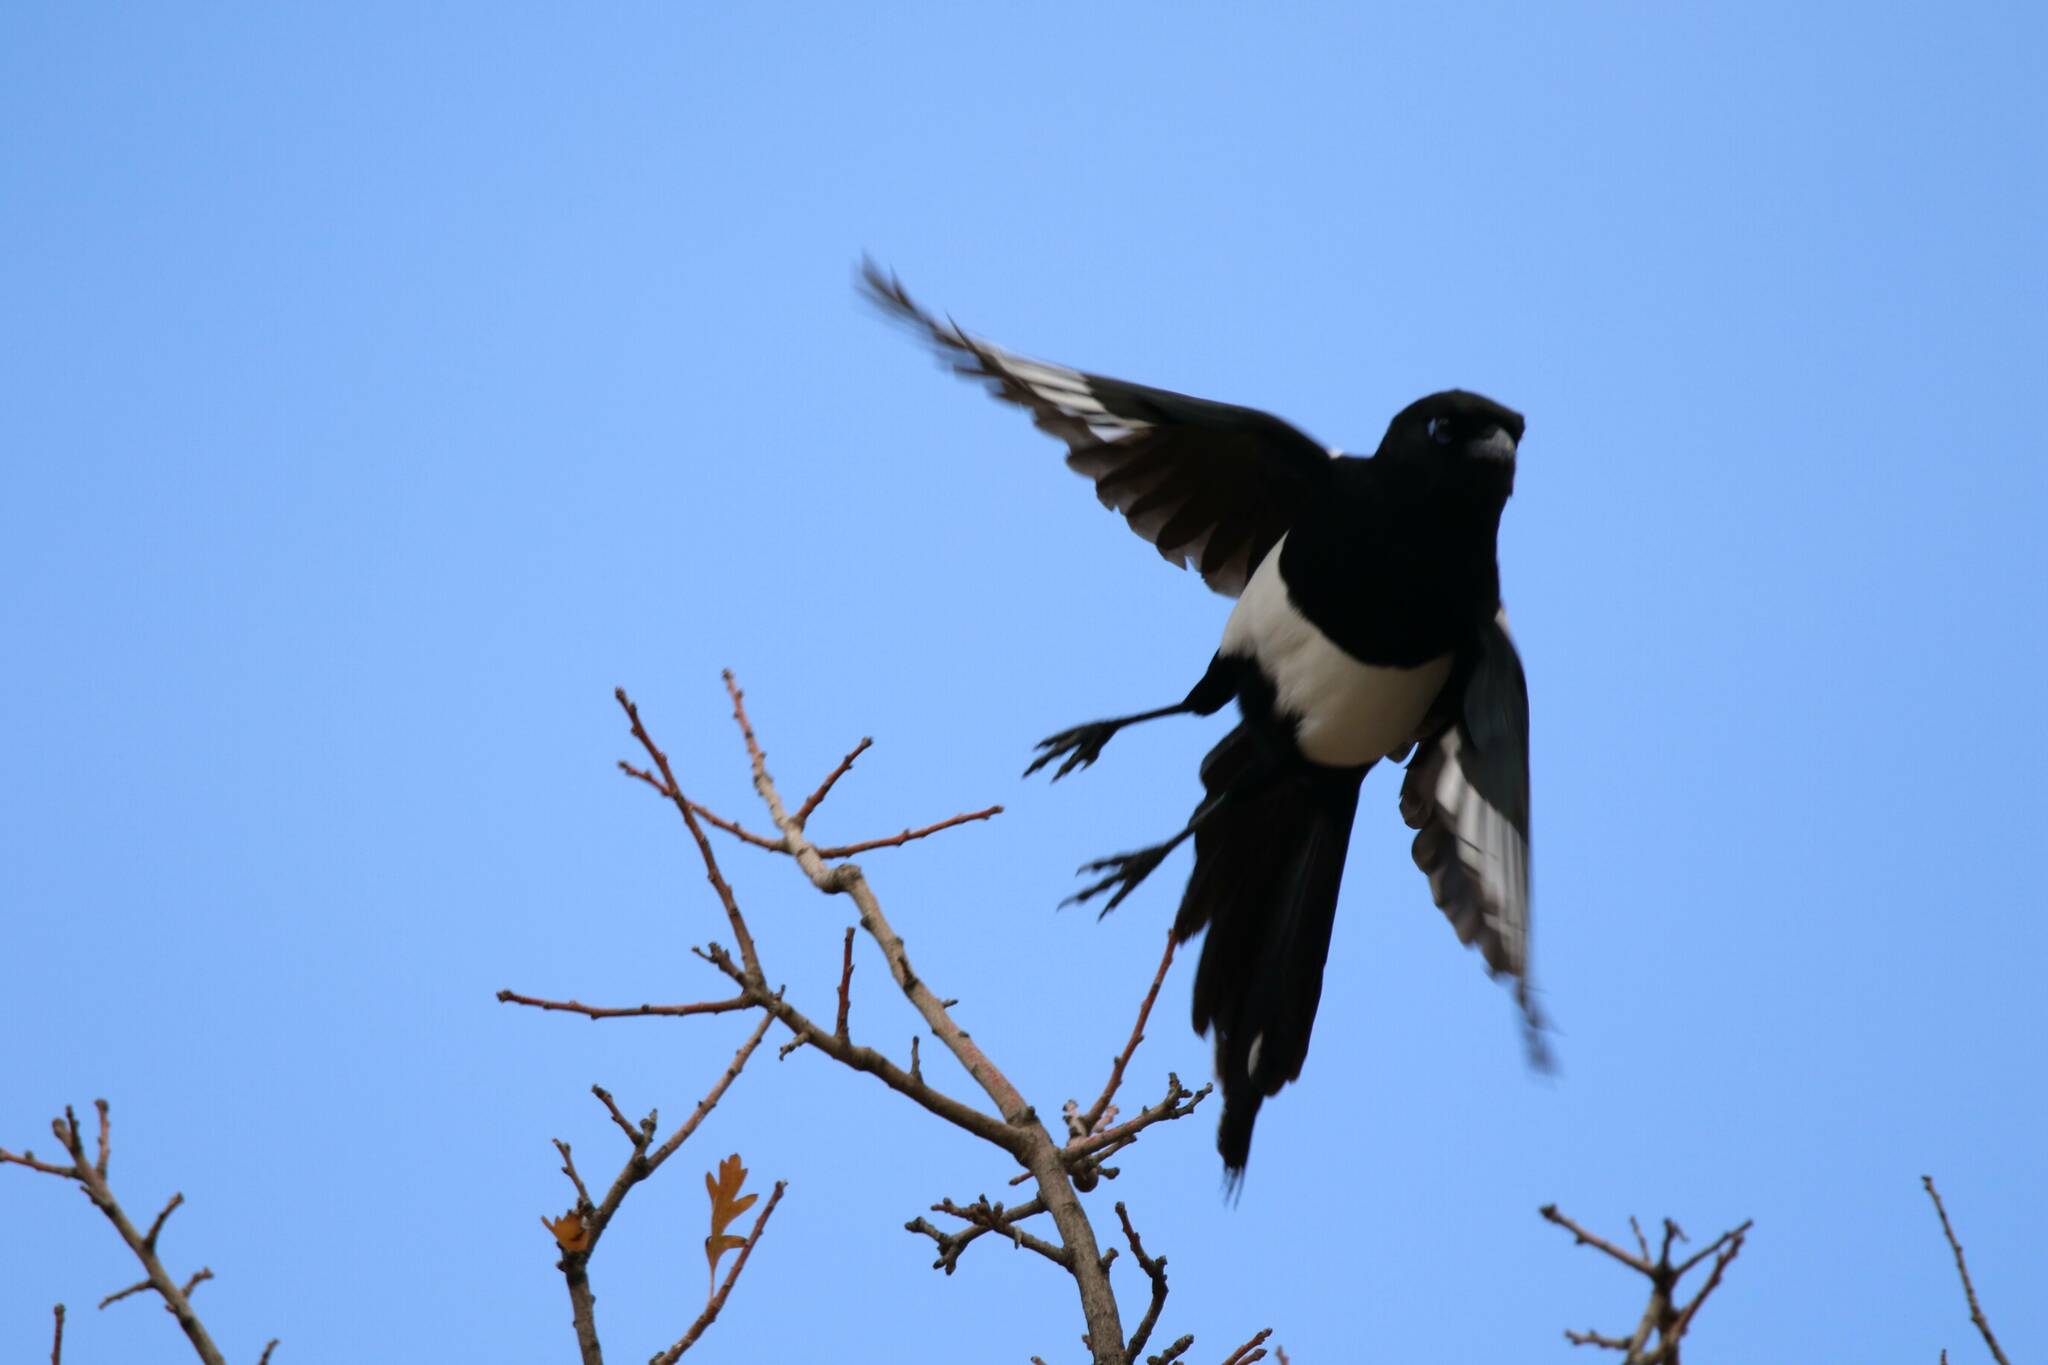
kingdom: Animalia
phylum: Chordata
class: Aves
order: Passeriformes
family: Corvidae
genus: Pica
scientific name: Pica mauritanica
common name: Maghreb magpie
